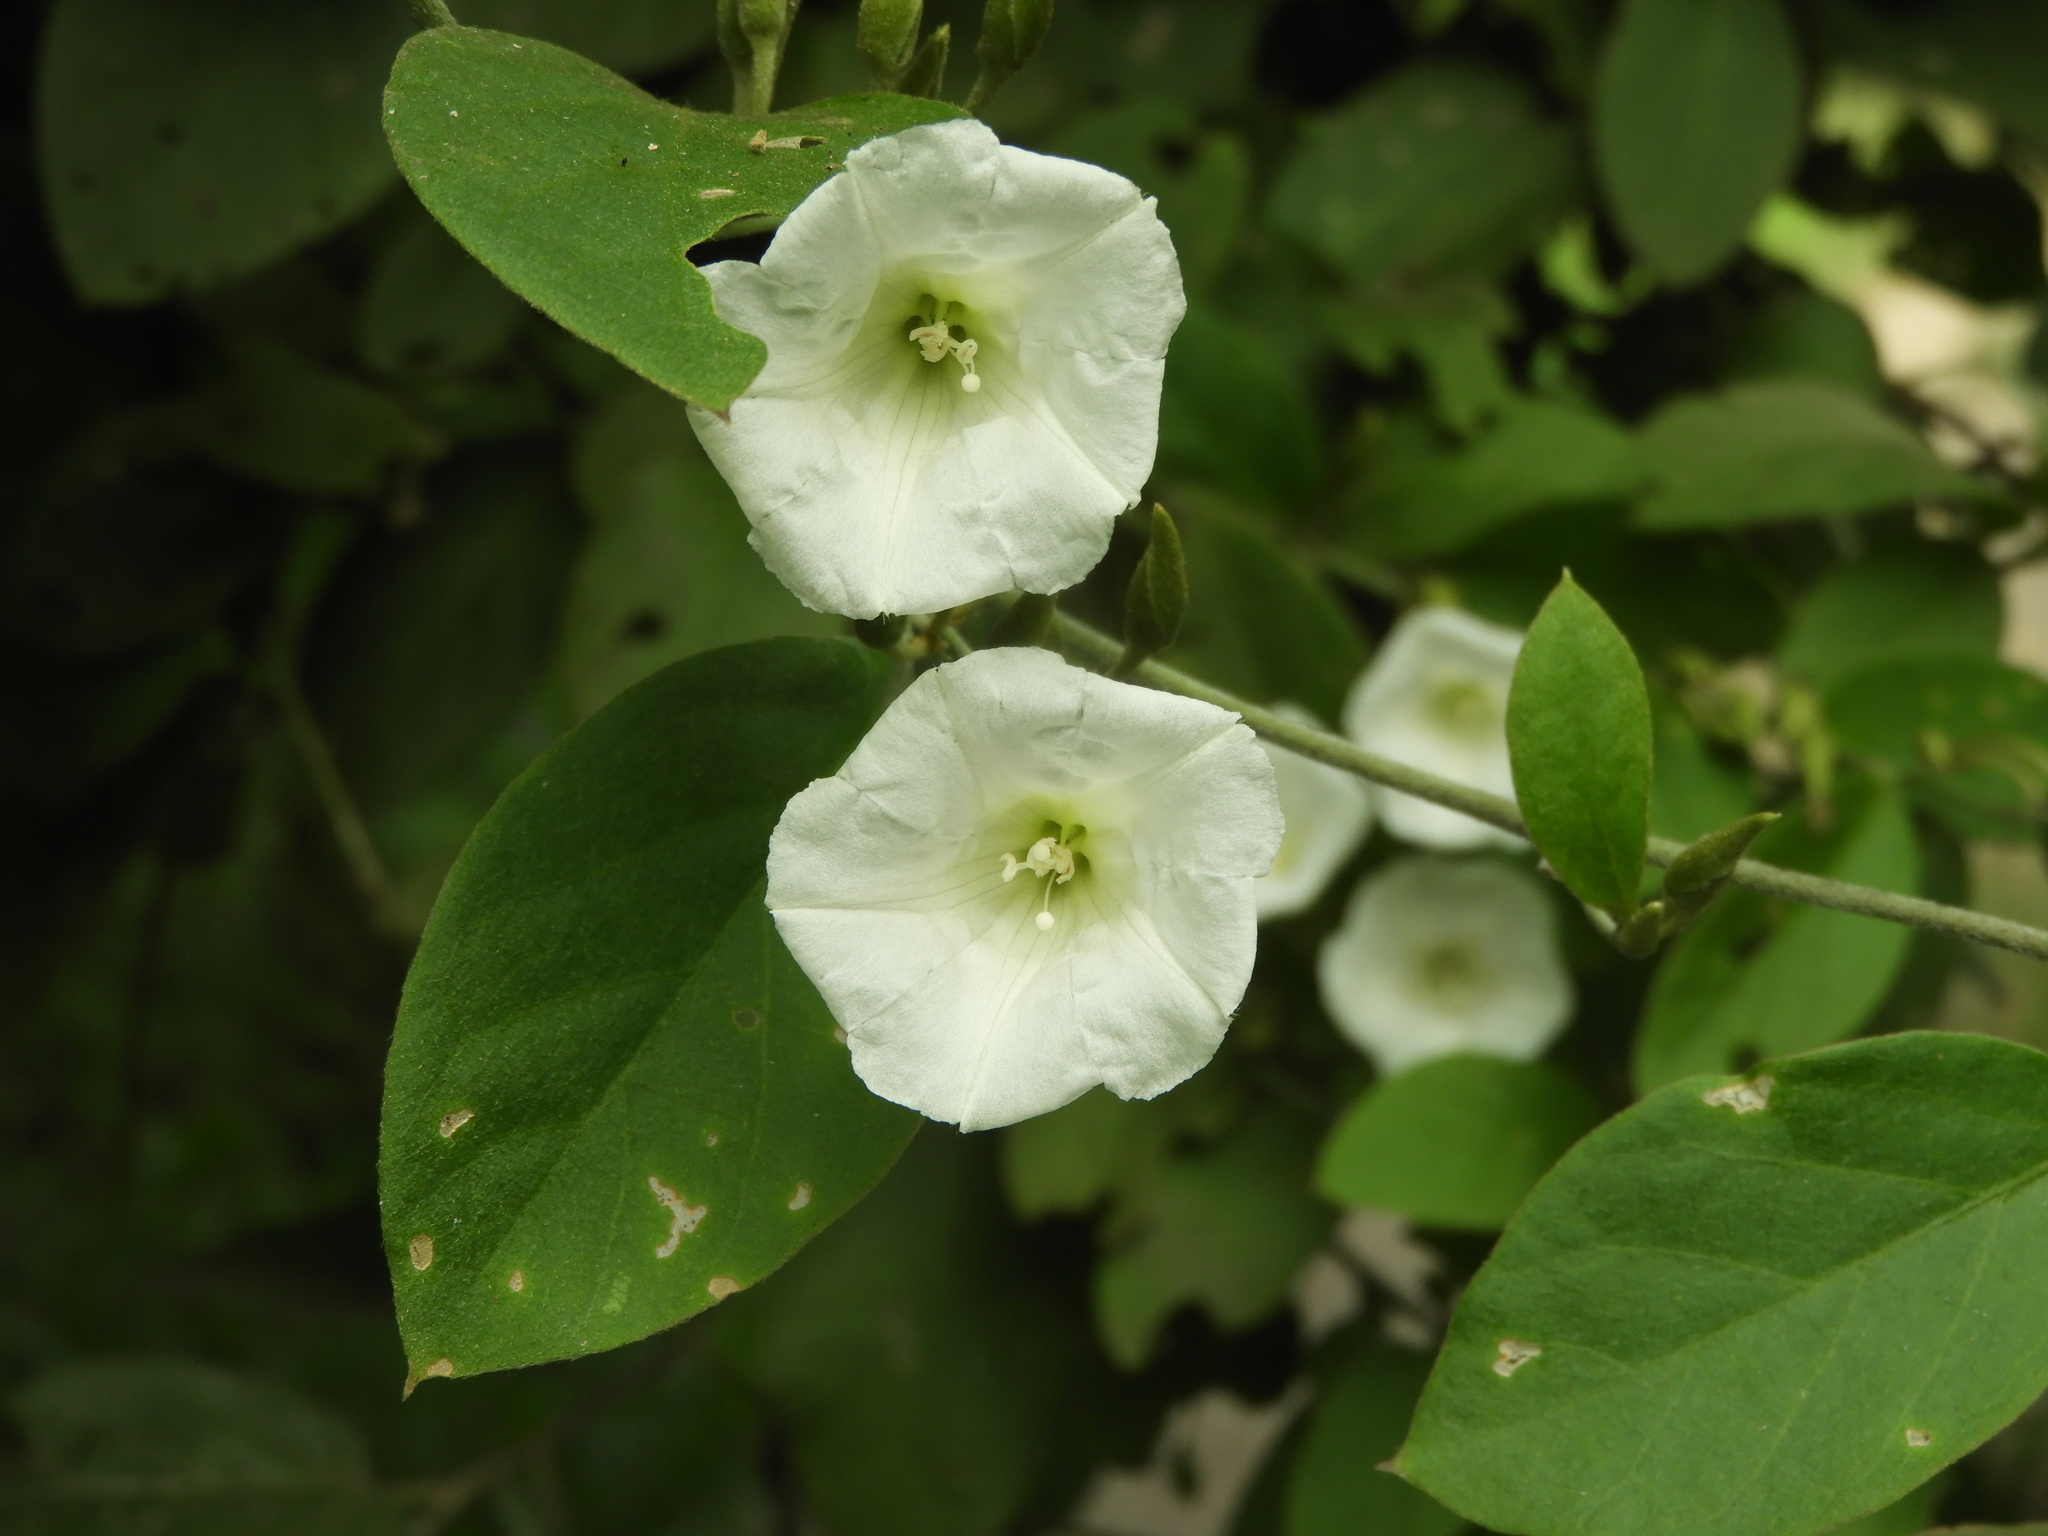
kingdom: Plantae
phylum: Tracheophyta
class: Magnoliopsida
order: Solanales
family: Convolvulaceae
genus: Bonamia
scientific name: Bonamia sulphurea
